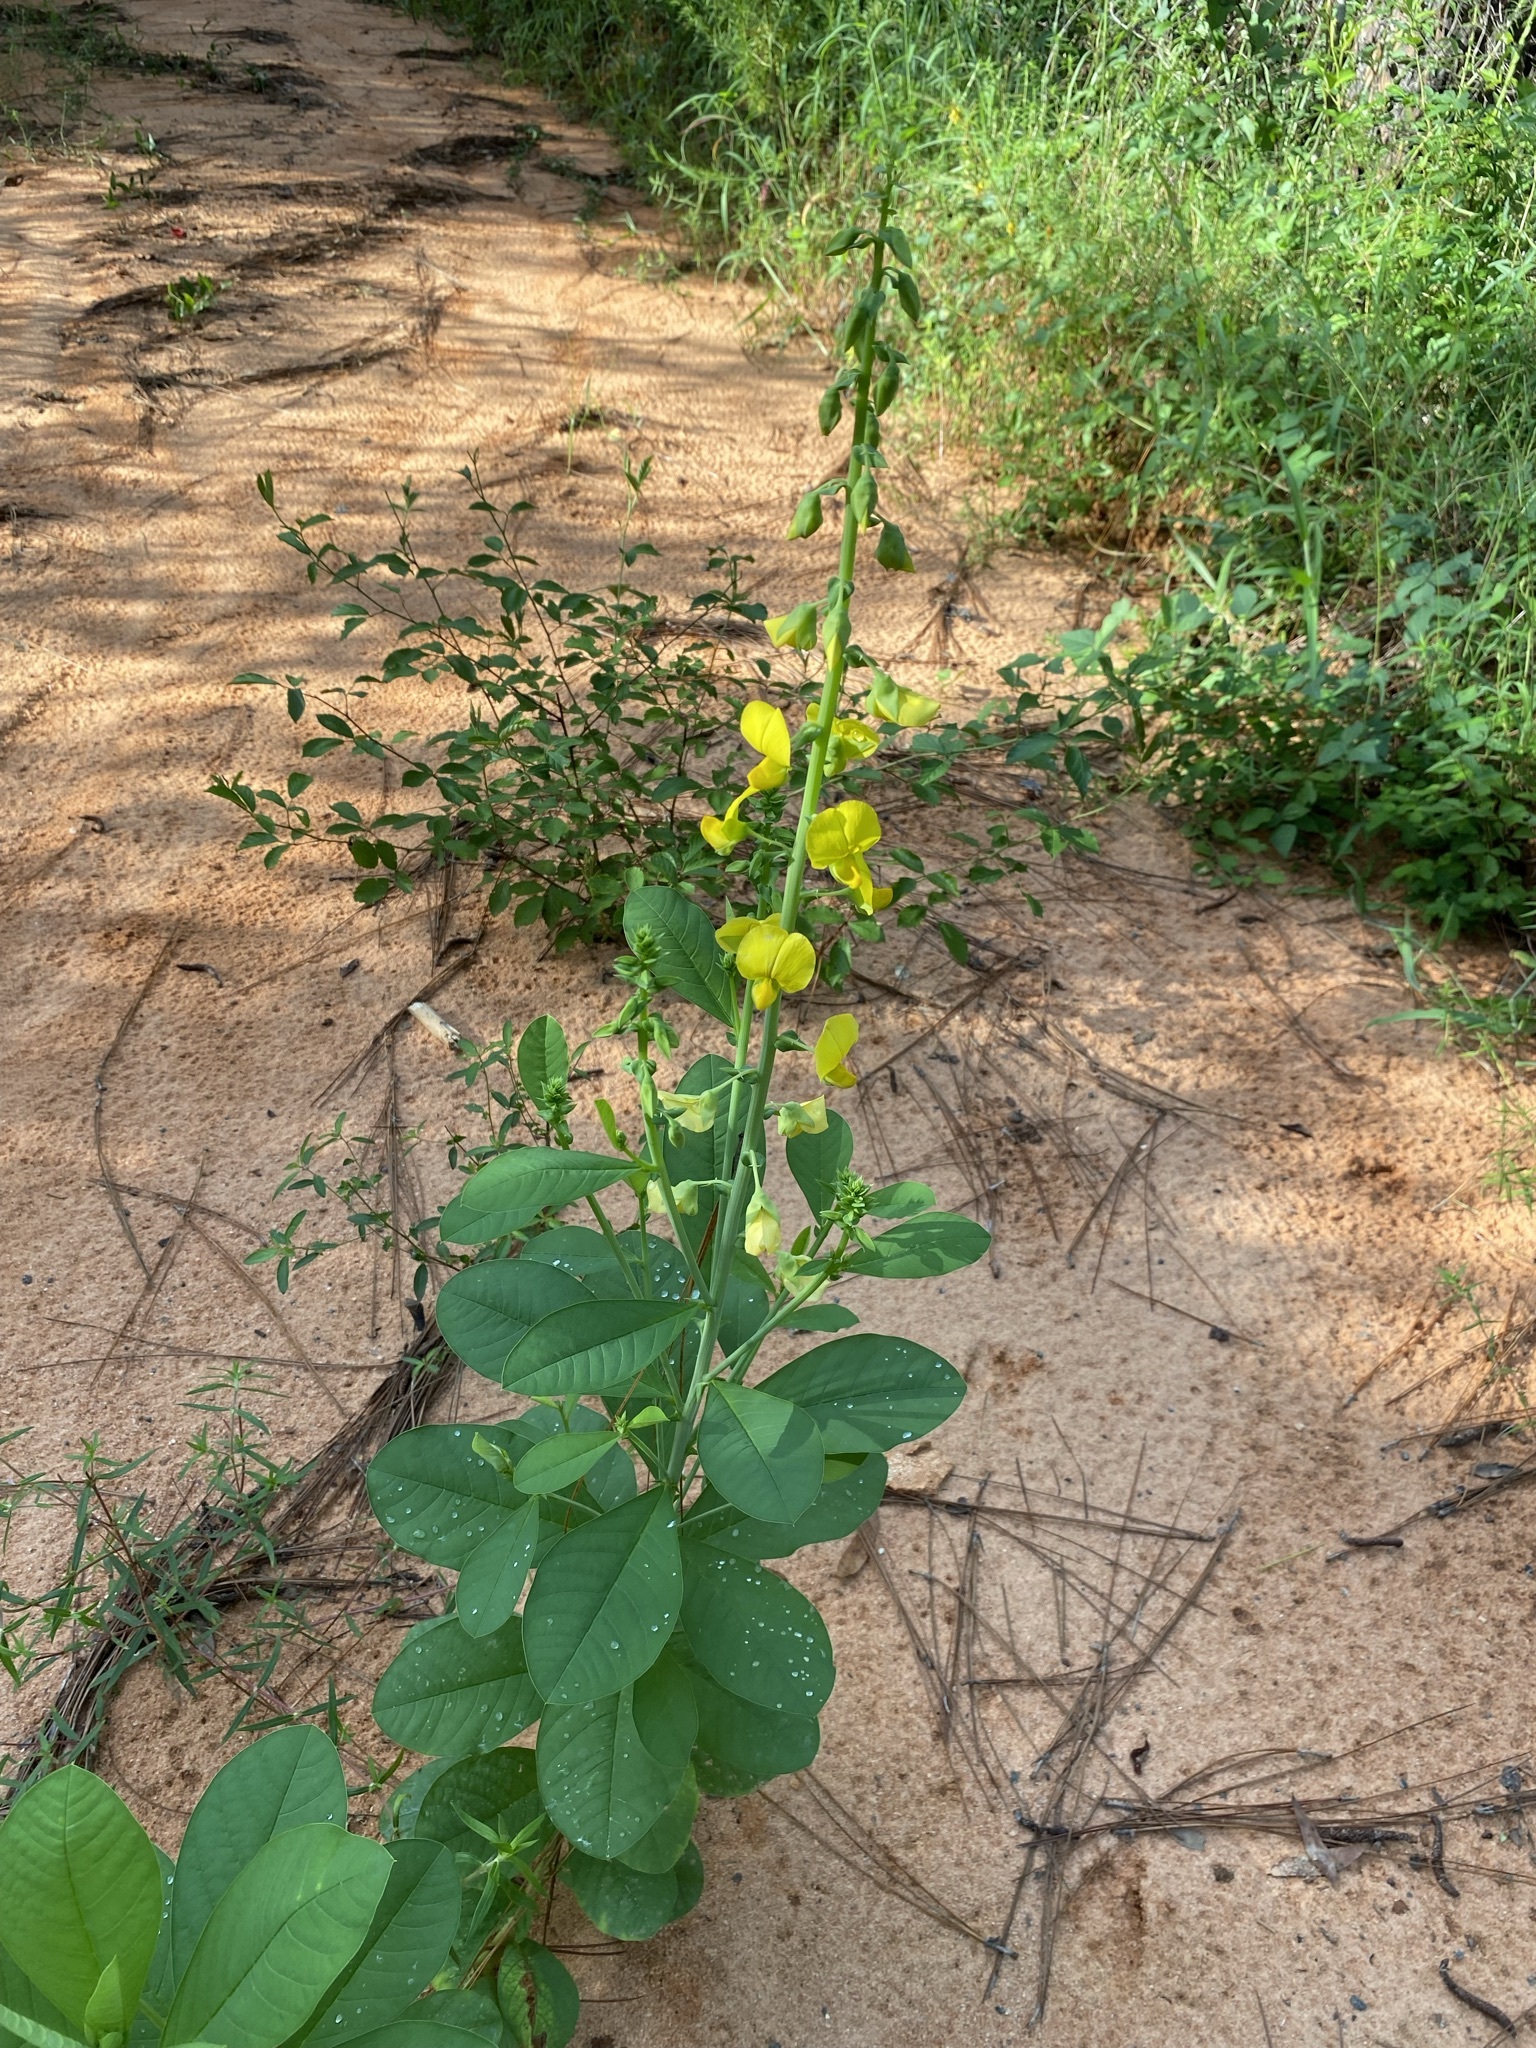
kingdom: Plantae
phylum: Tracheophyta
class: Magnoliopsida
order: Fabales
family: Fabaceae
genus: Crotalaria
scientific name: Crotalaria spectabilis
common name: Showy rattlebox
